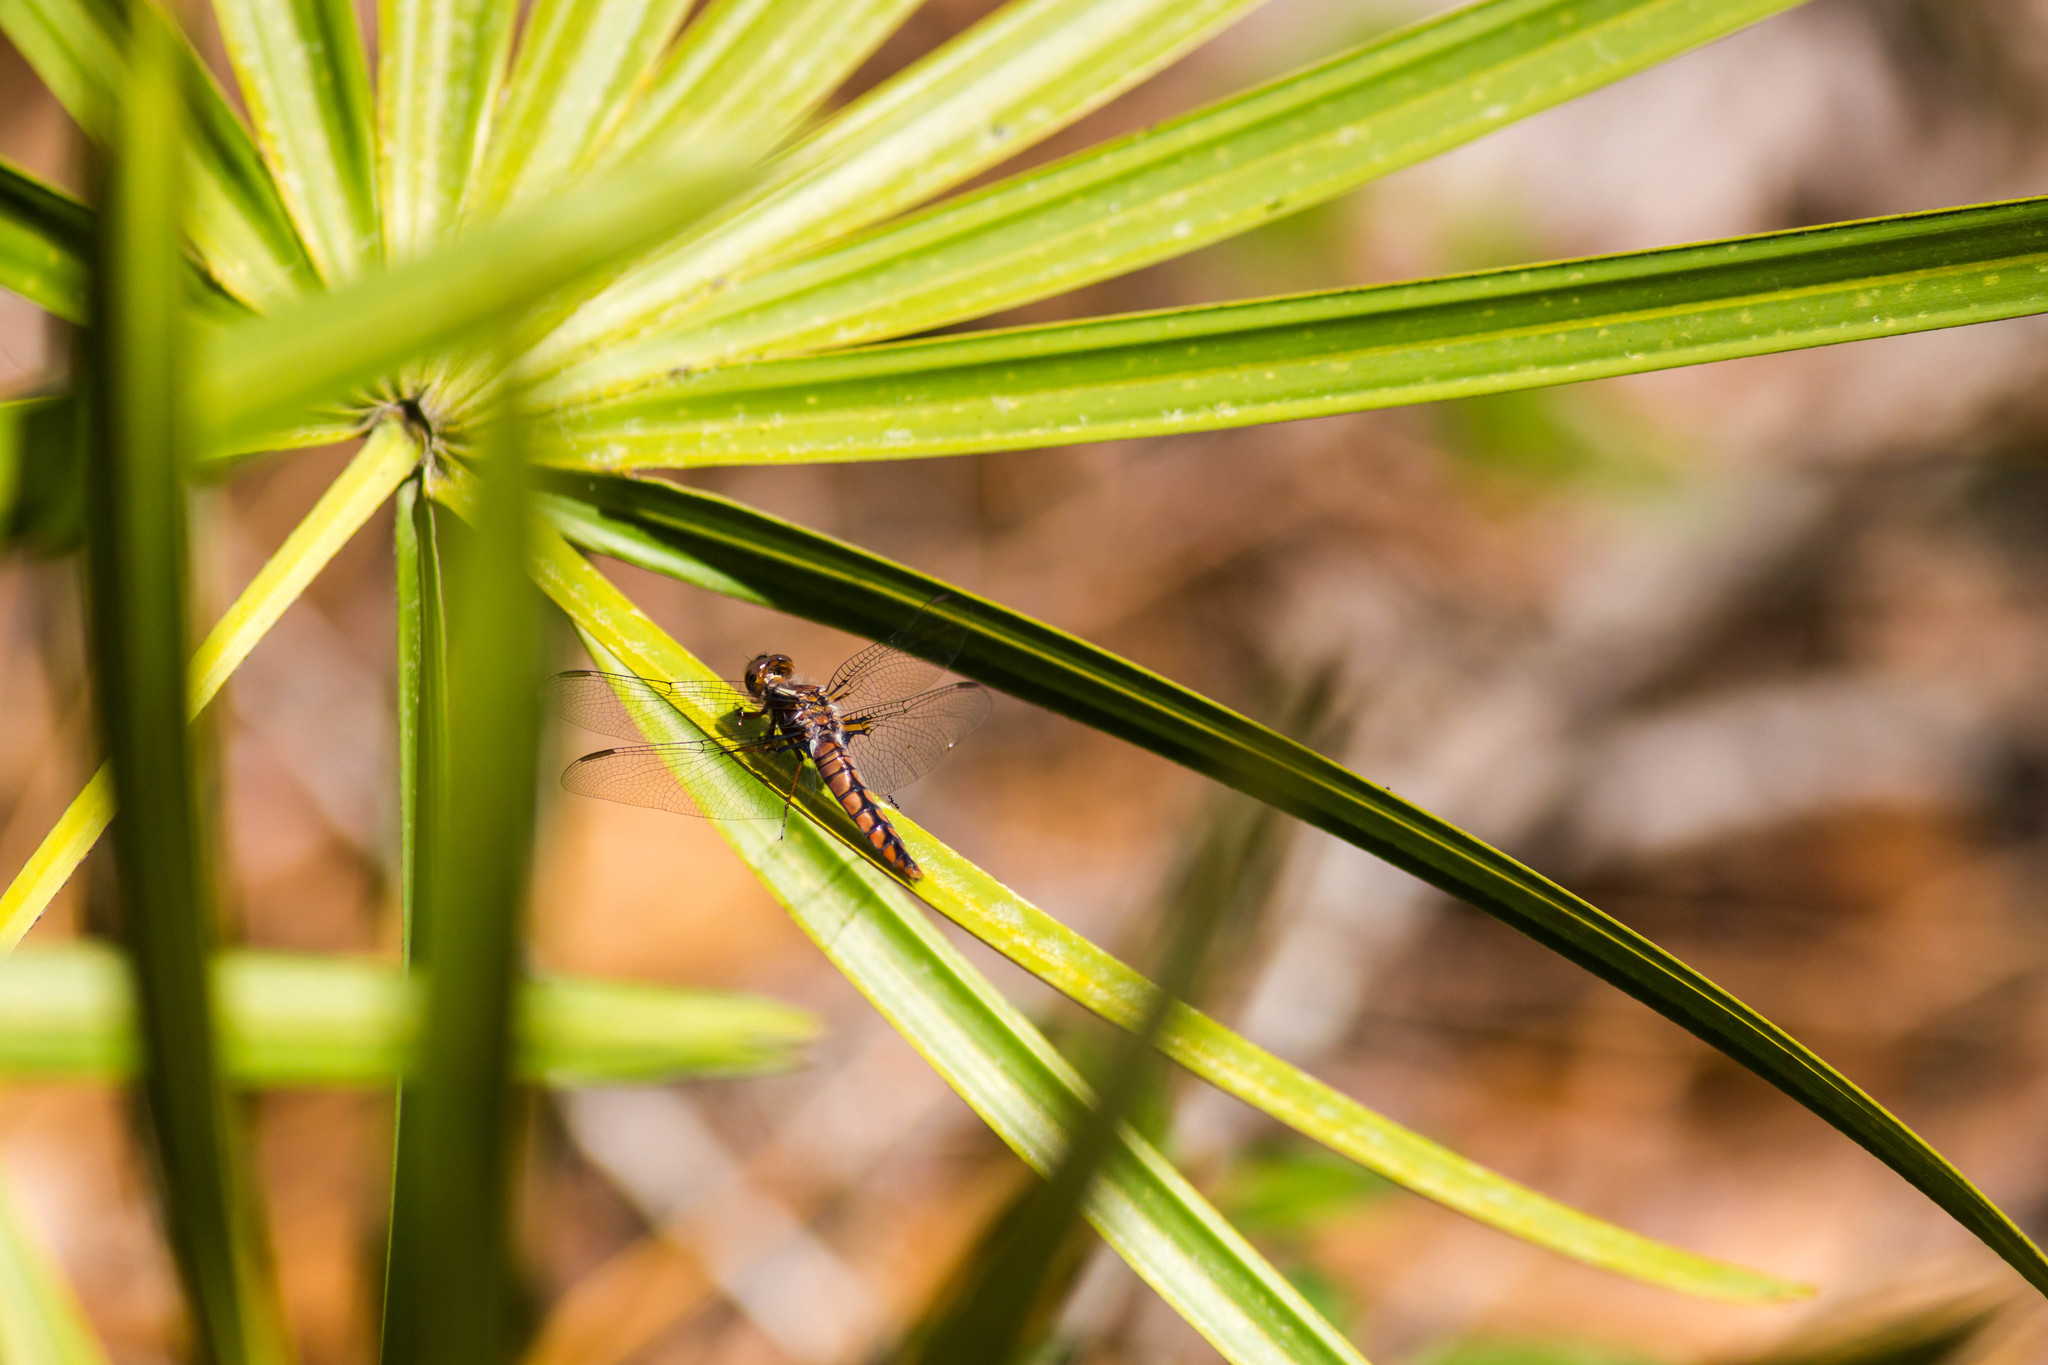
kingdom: Animalia
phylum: Arthropoda
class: Insecta
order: Odonata
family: Libellulidae
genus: Ladona
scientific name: Ladona deplanata
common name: Blue corporal
